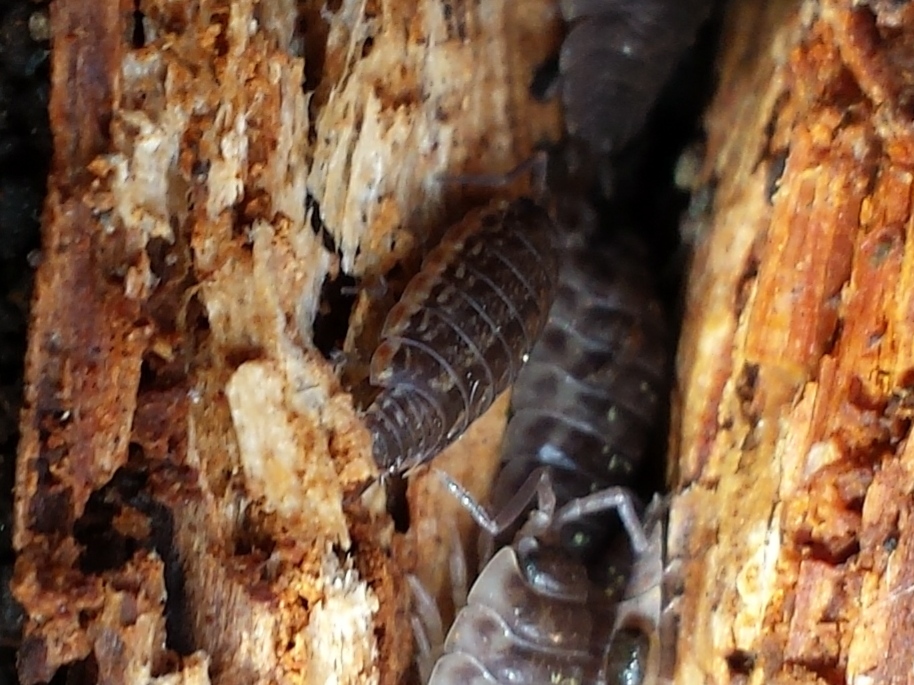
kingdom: Animalia
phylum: Arthropoda
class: Malacostraca
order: Isopoda
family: Philosciidae
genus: Philoscia
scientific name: Philoscia muscorum
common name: Common striped woodlouse
